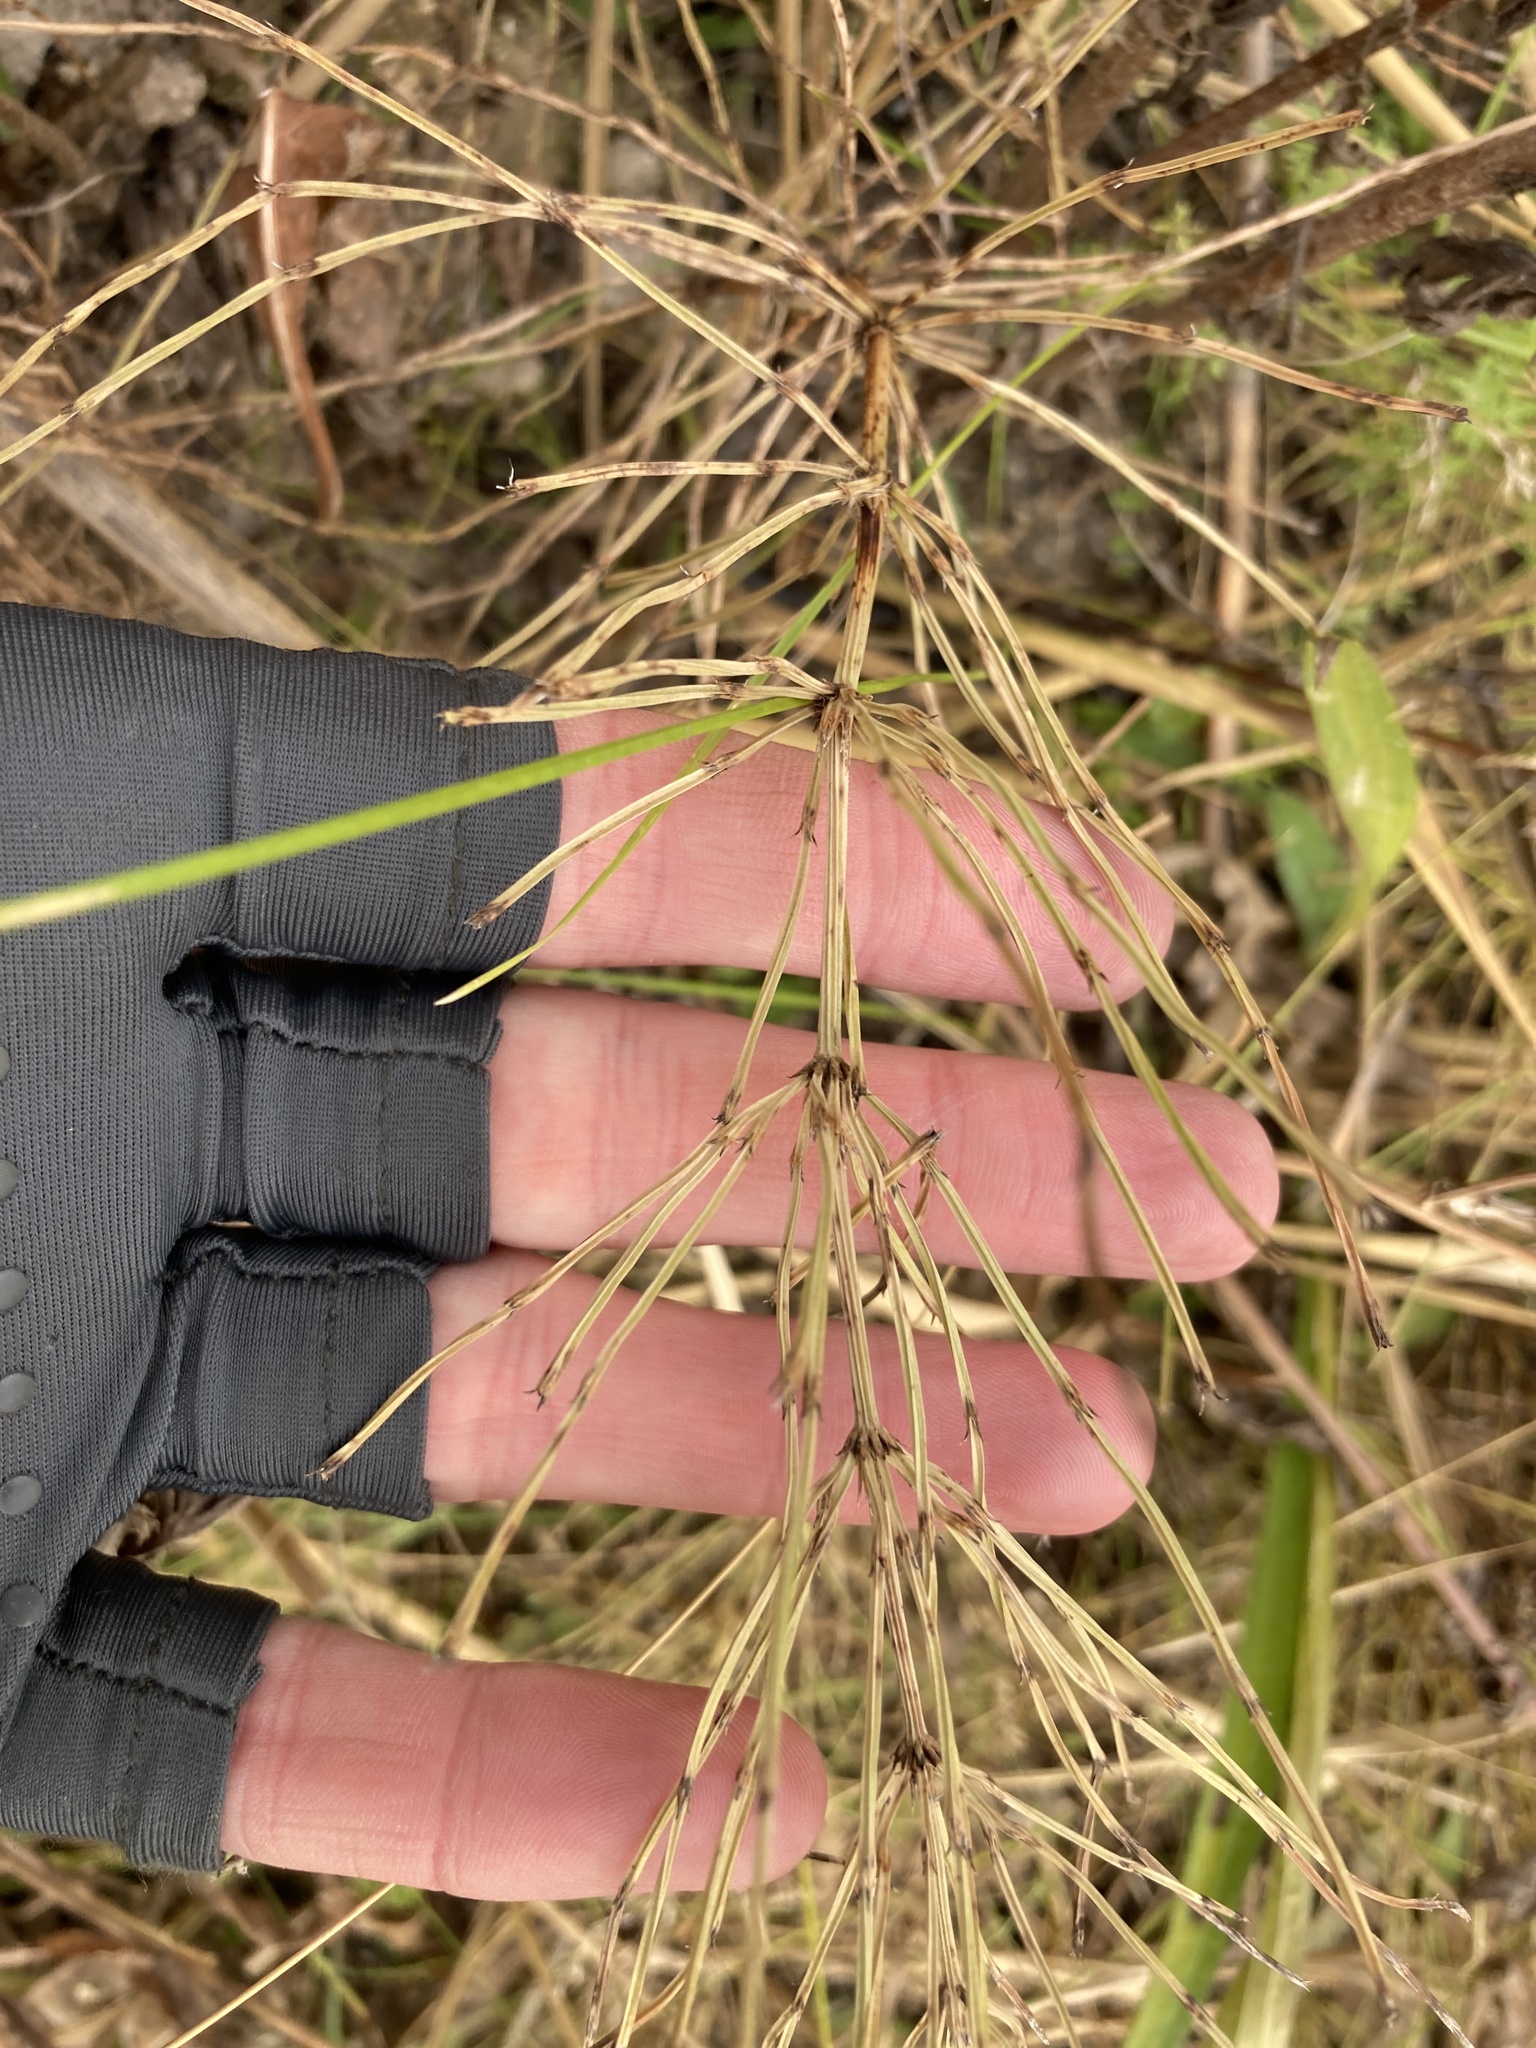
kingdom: Plantae
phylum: Tracheophyta
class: Polypodiopsida
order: Equisetales
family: Equisetaceae
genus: Equisetum
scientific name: Equisetum arvense
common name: Field horsetail
